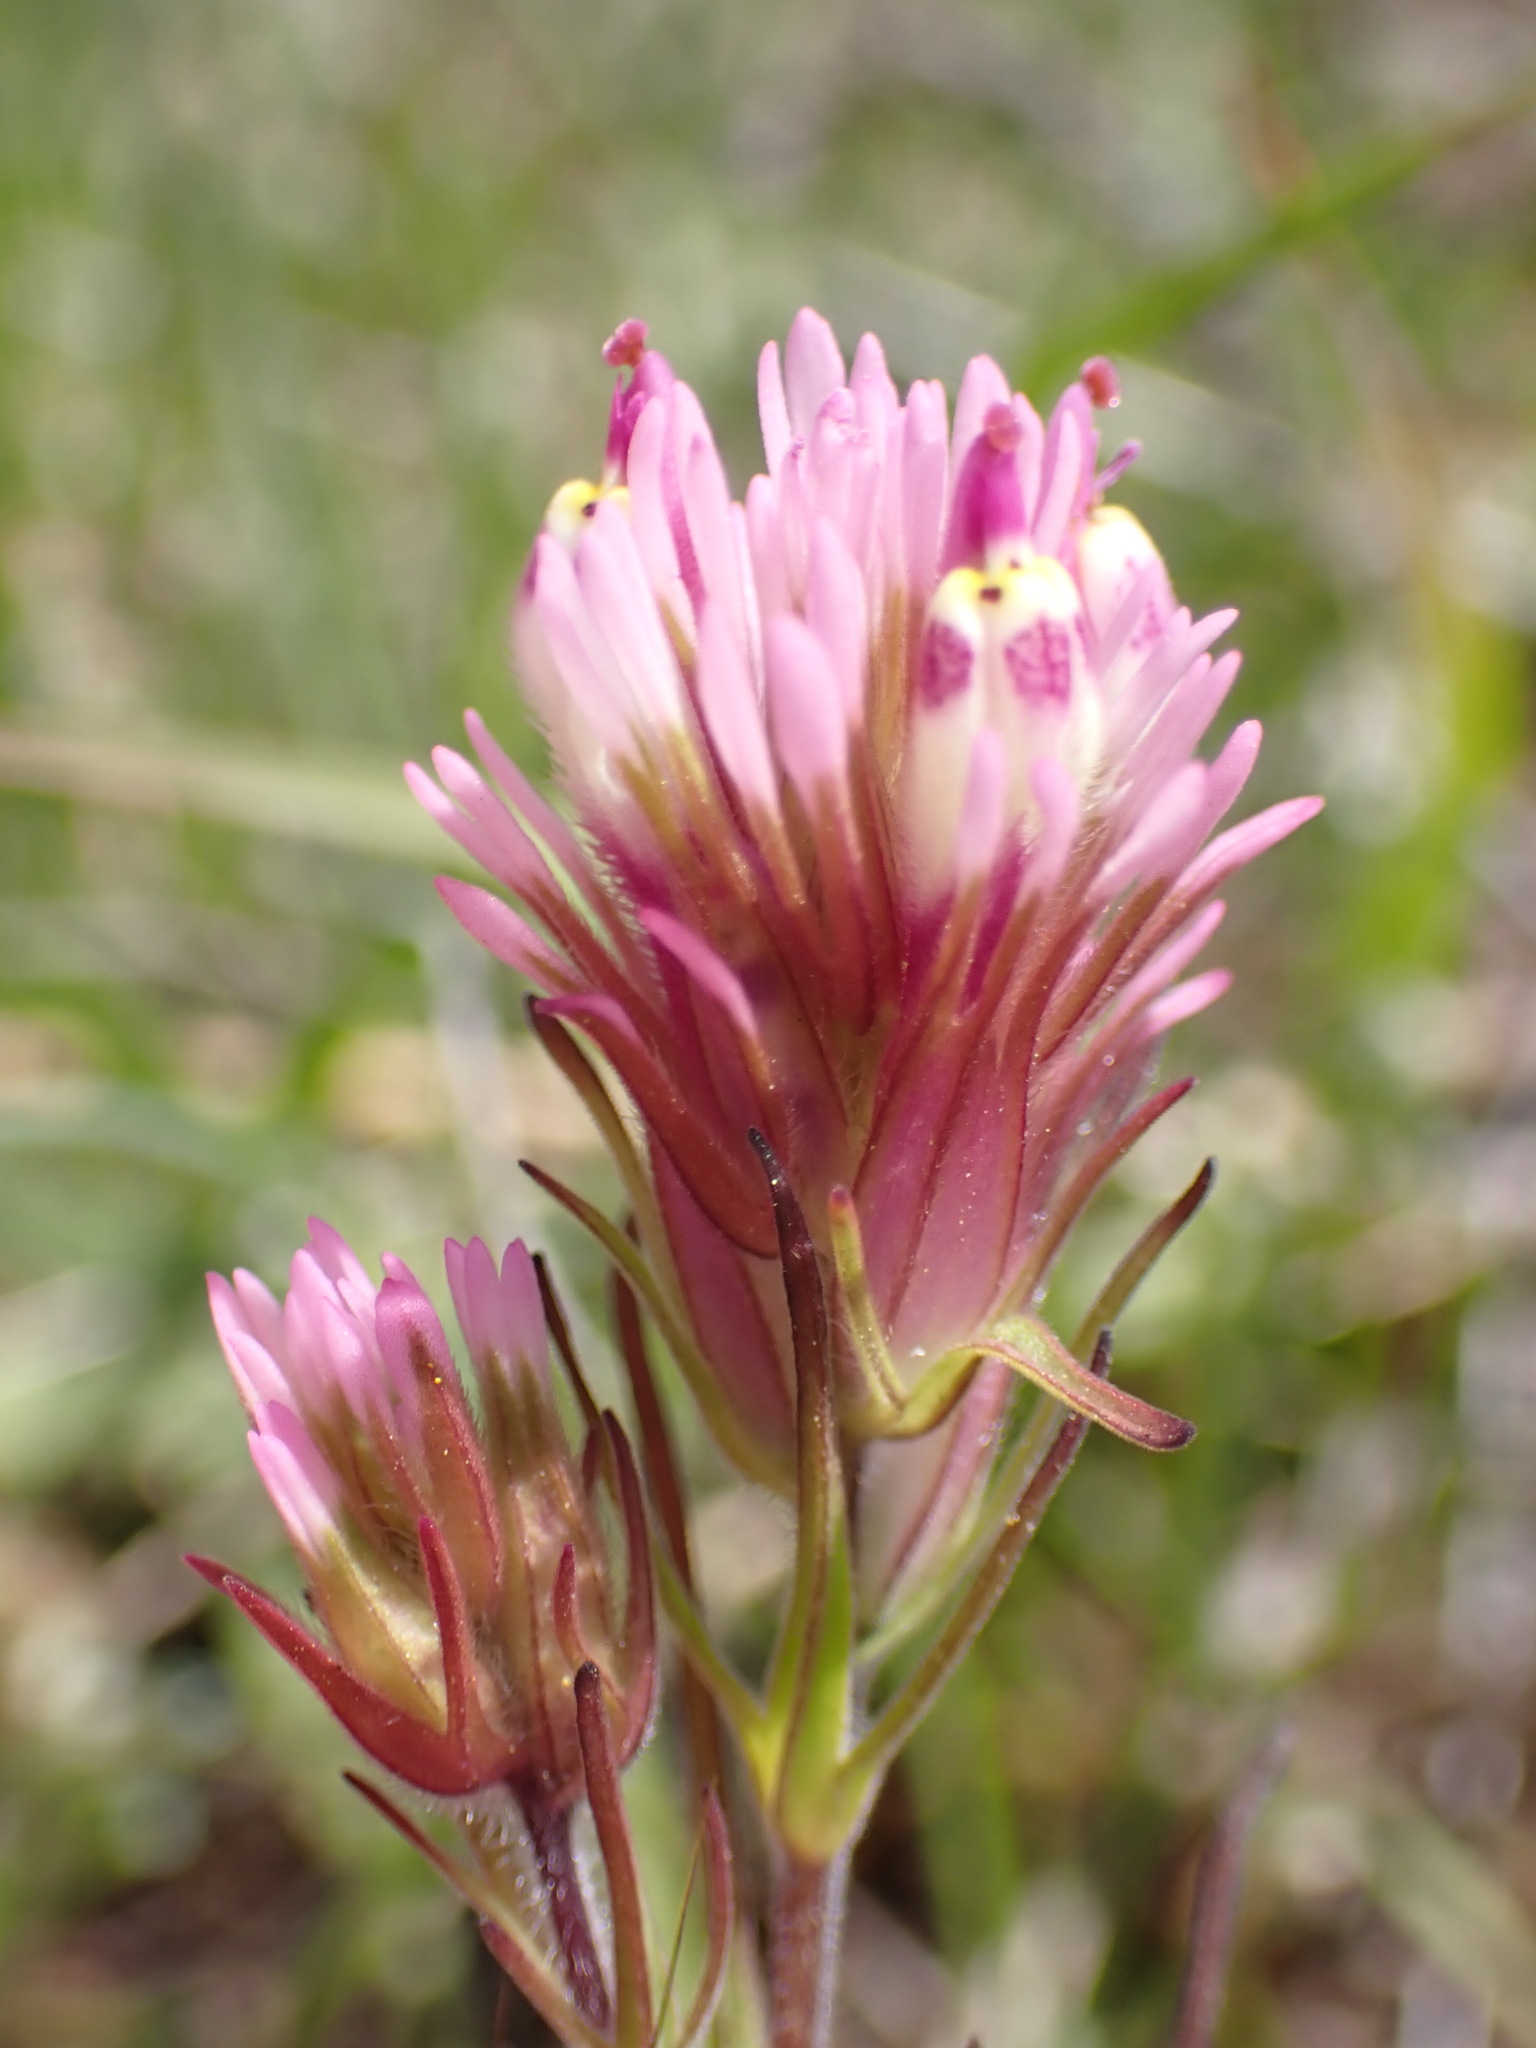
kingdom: Plantae
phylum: Tracheophyta
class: Magnoliopsida
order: Lamiales
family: Orobanchaceae
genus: Castilleja
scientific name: Castilleja densiflora
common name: Dense-flower indian paintbrush
